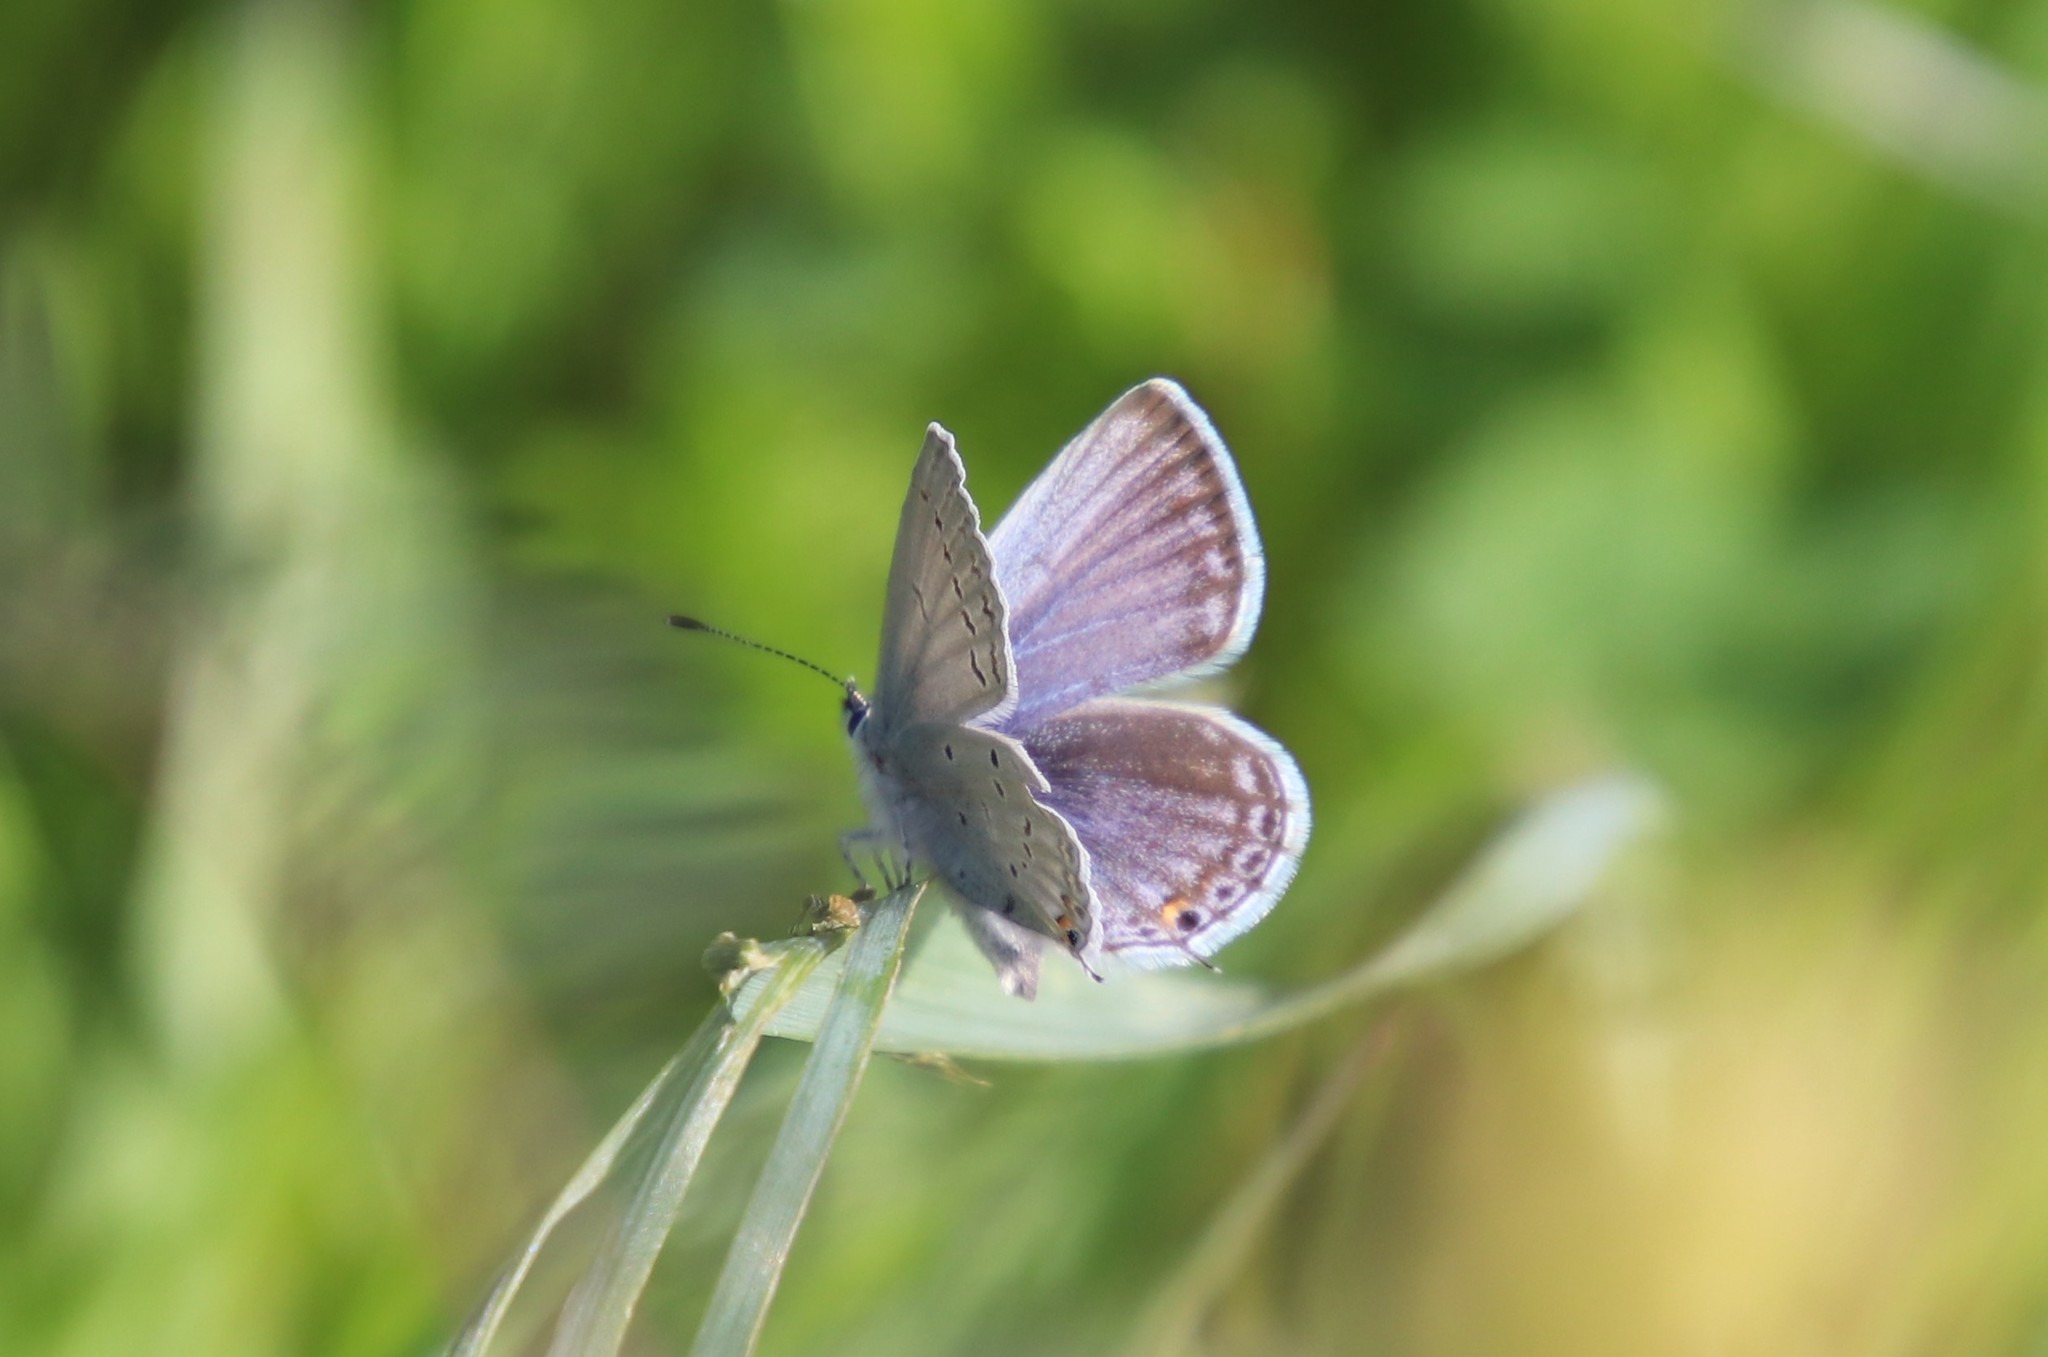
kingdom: Animalia
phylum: Arthropoda
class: Insecta
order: Lepidoptera
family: Lycaenidae
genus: Elkalyce
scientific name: Elkalyce amyntula
